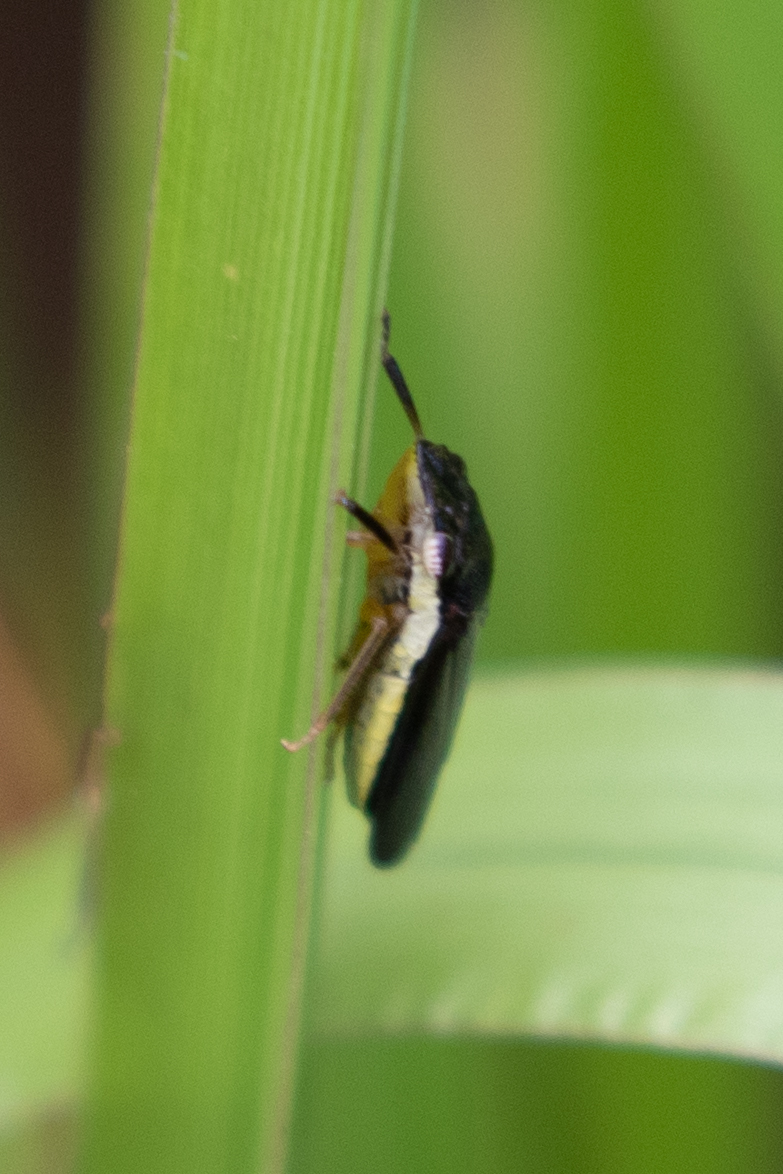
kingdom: Animalia
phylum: Arthropoda
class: Insecta
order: Hemiptera
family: Cicadellidae
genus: Homalodisca
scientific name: Homalodisca insolita
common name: Johnson grass sharpshooter
